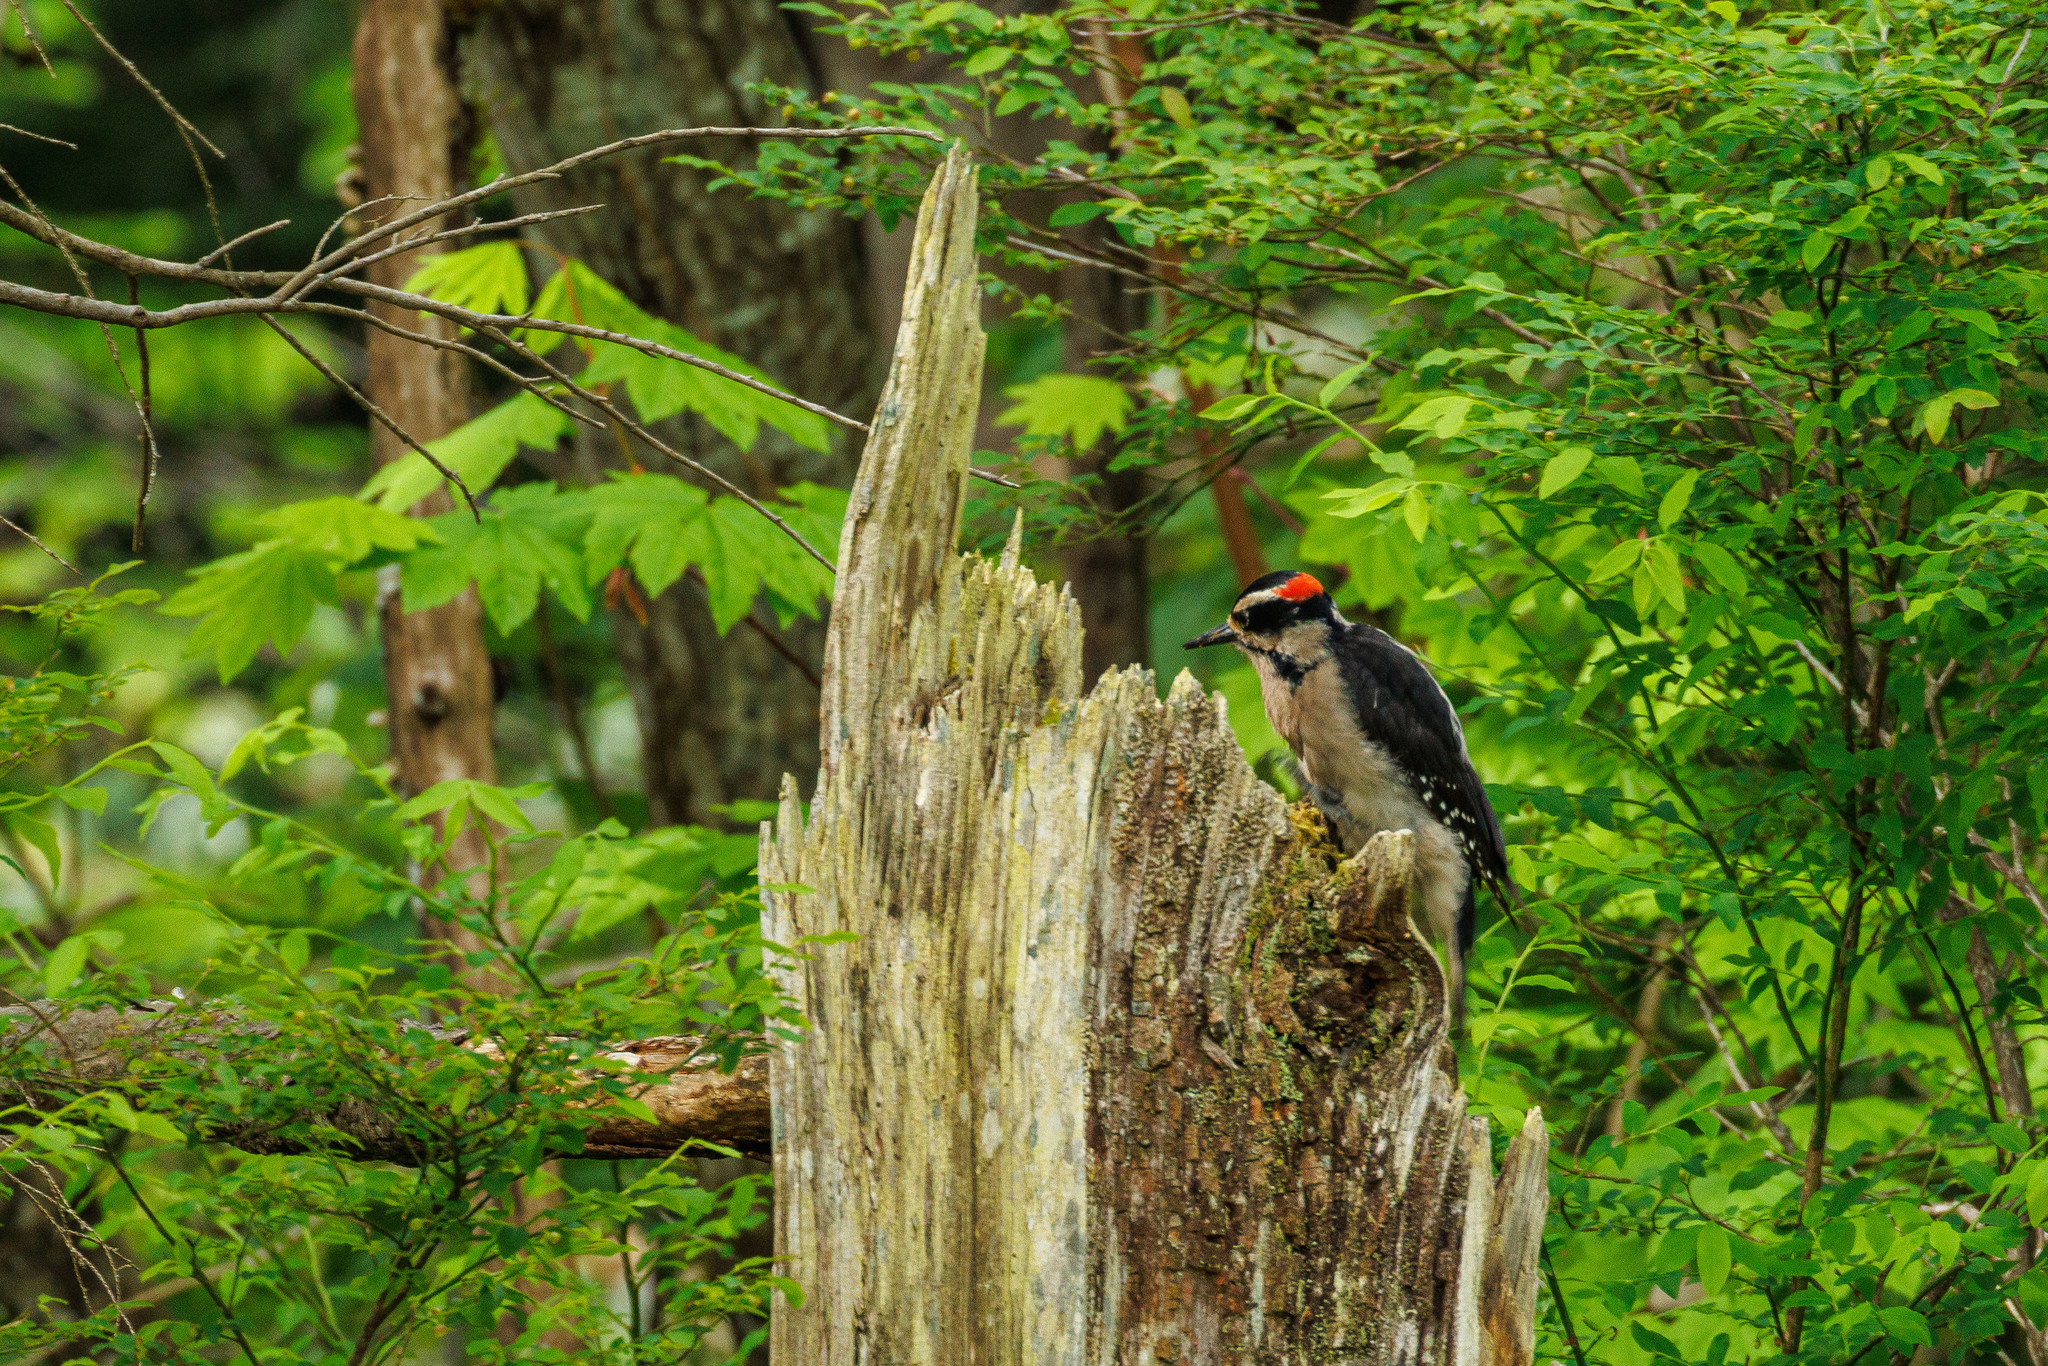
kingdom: Animalia
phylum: Chordata
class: Aves
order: Piciformes
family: Picidae
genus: Leuconotopicus
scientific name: Leuconotopicus villosus
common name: Hairy woodpecker
